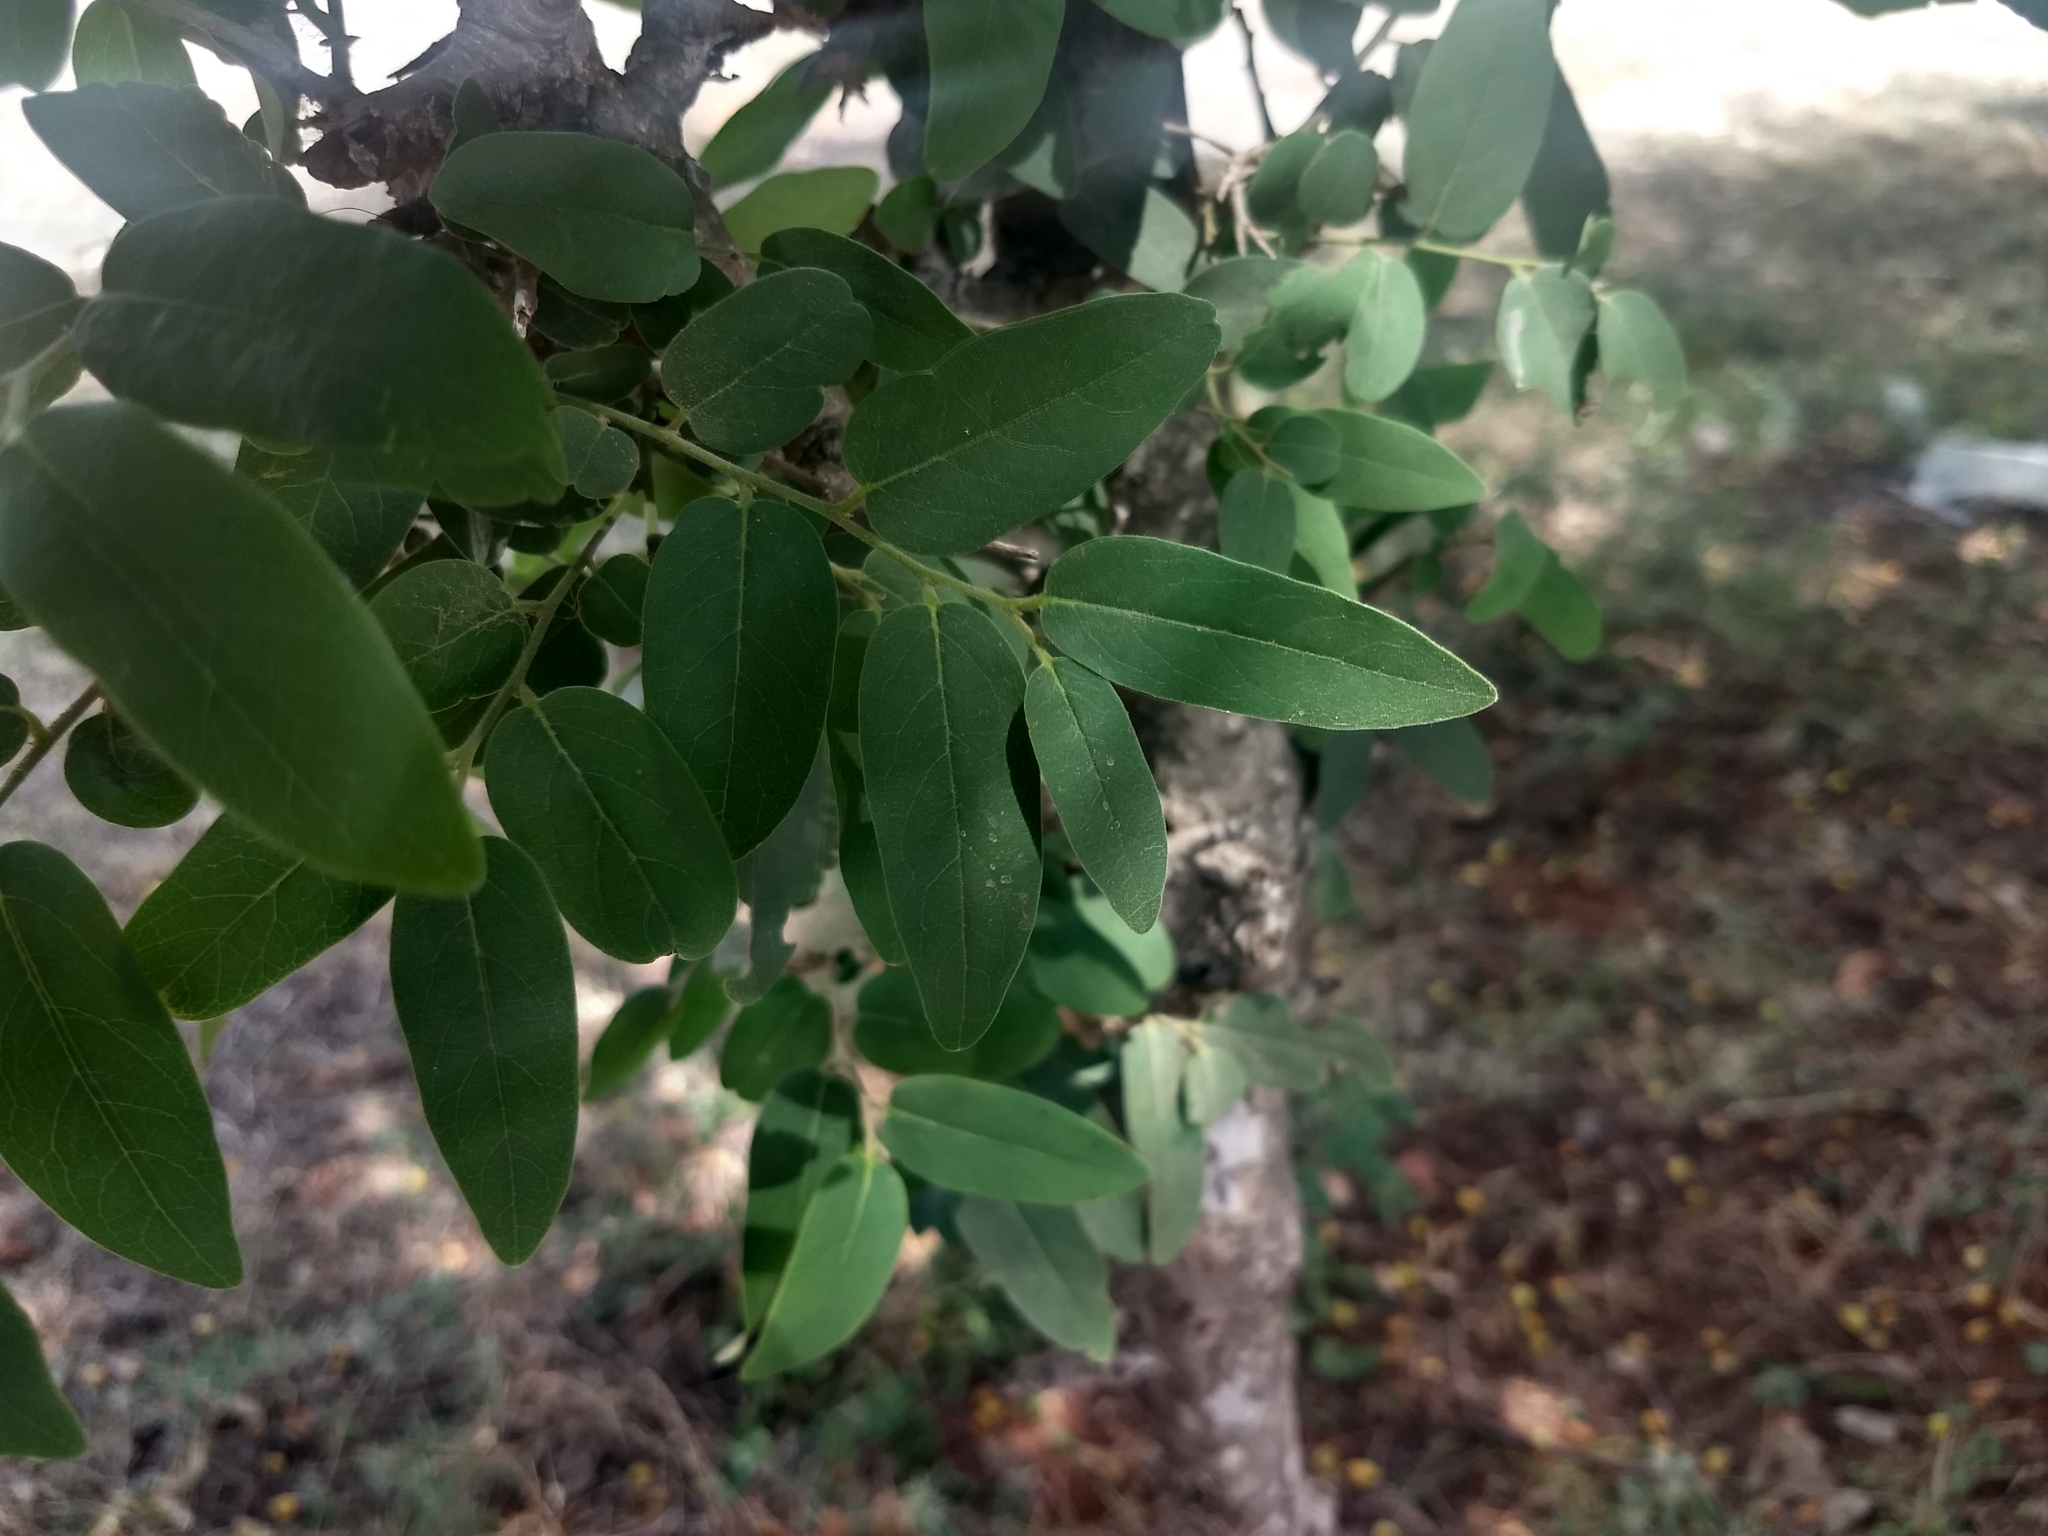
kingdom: Plantae
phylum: Tracheophyta
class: Magnoliopsida
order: Ericales
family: Ebenaceae
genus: Diospyros
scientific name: Diospyros montana
